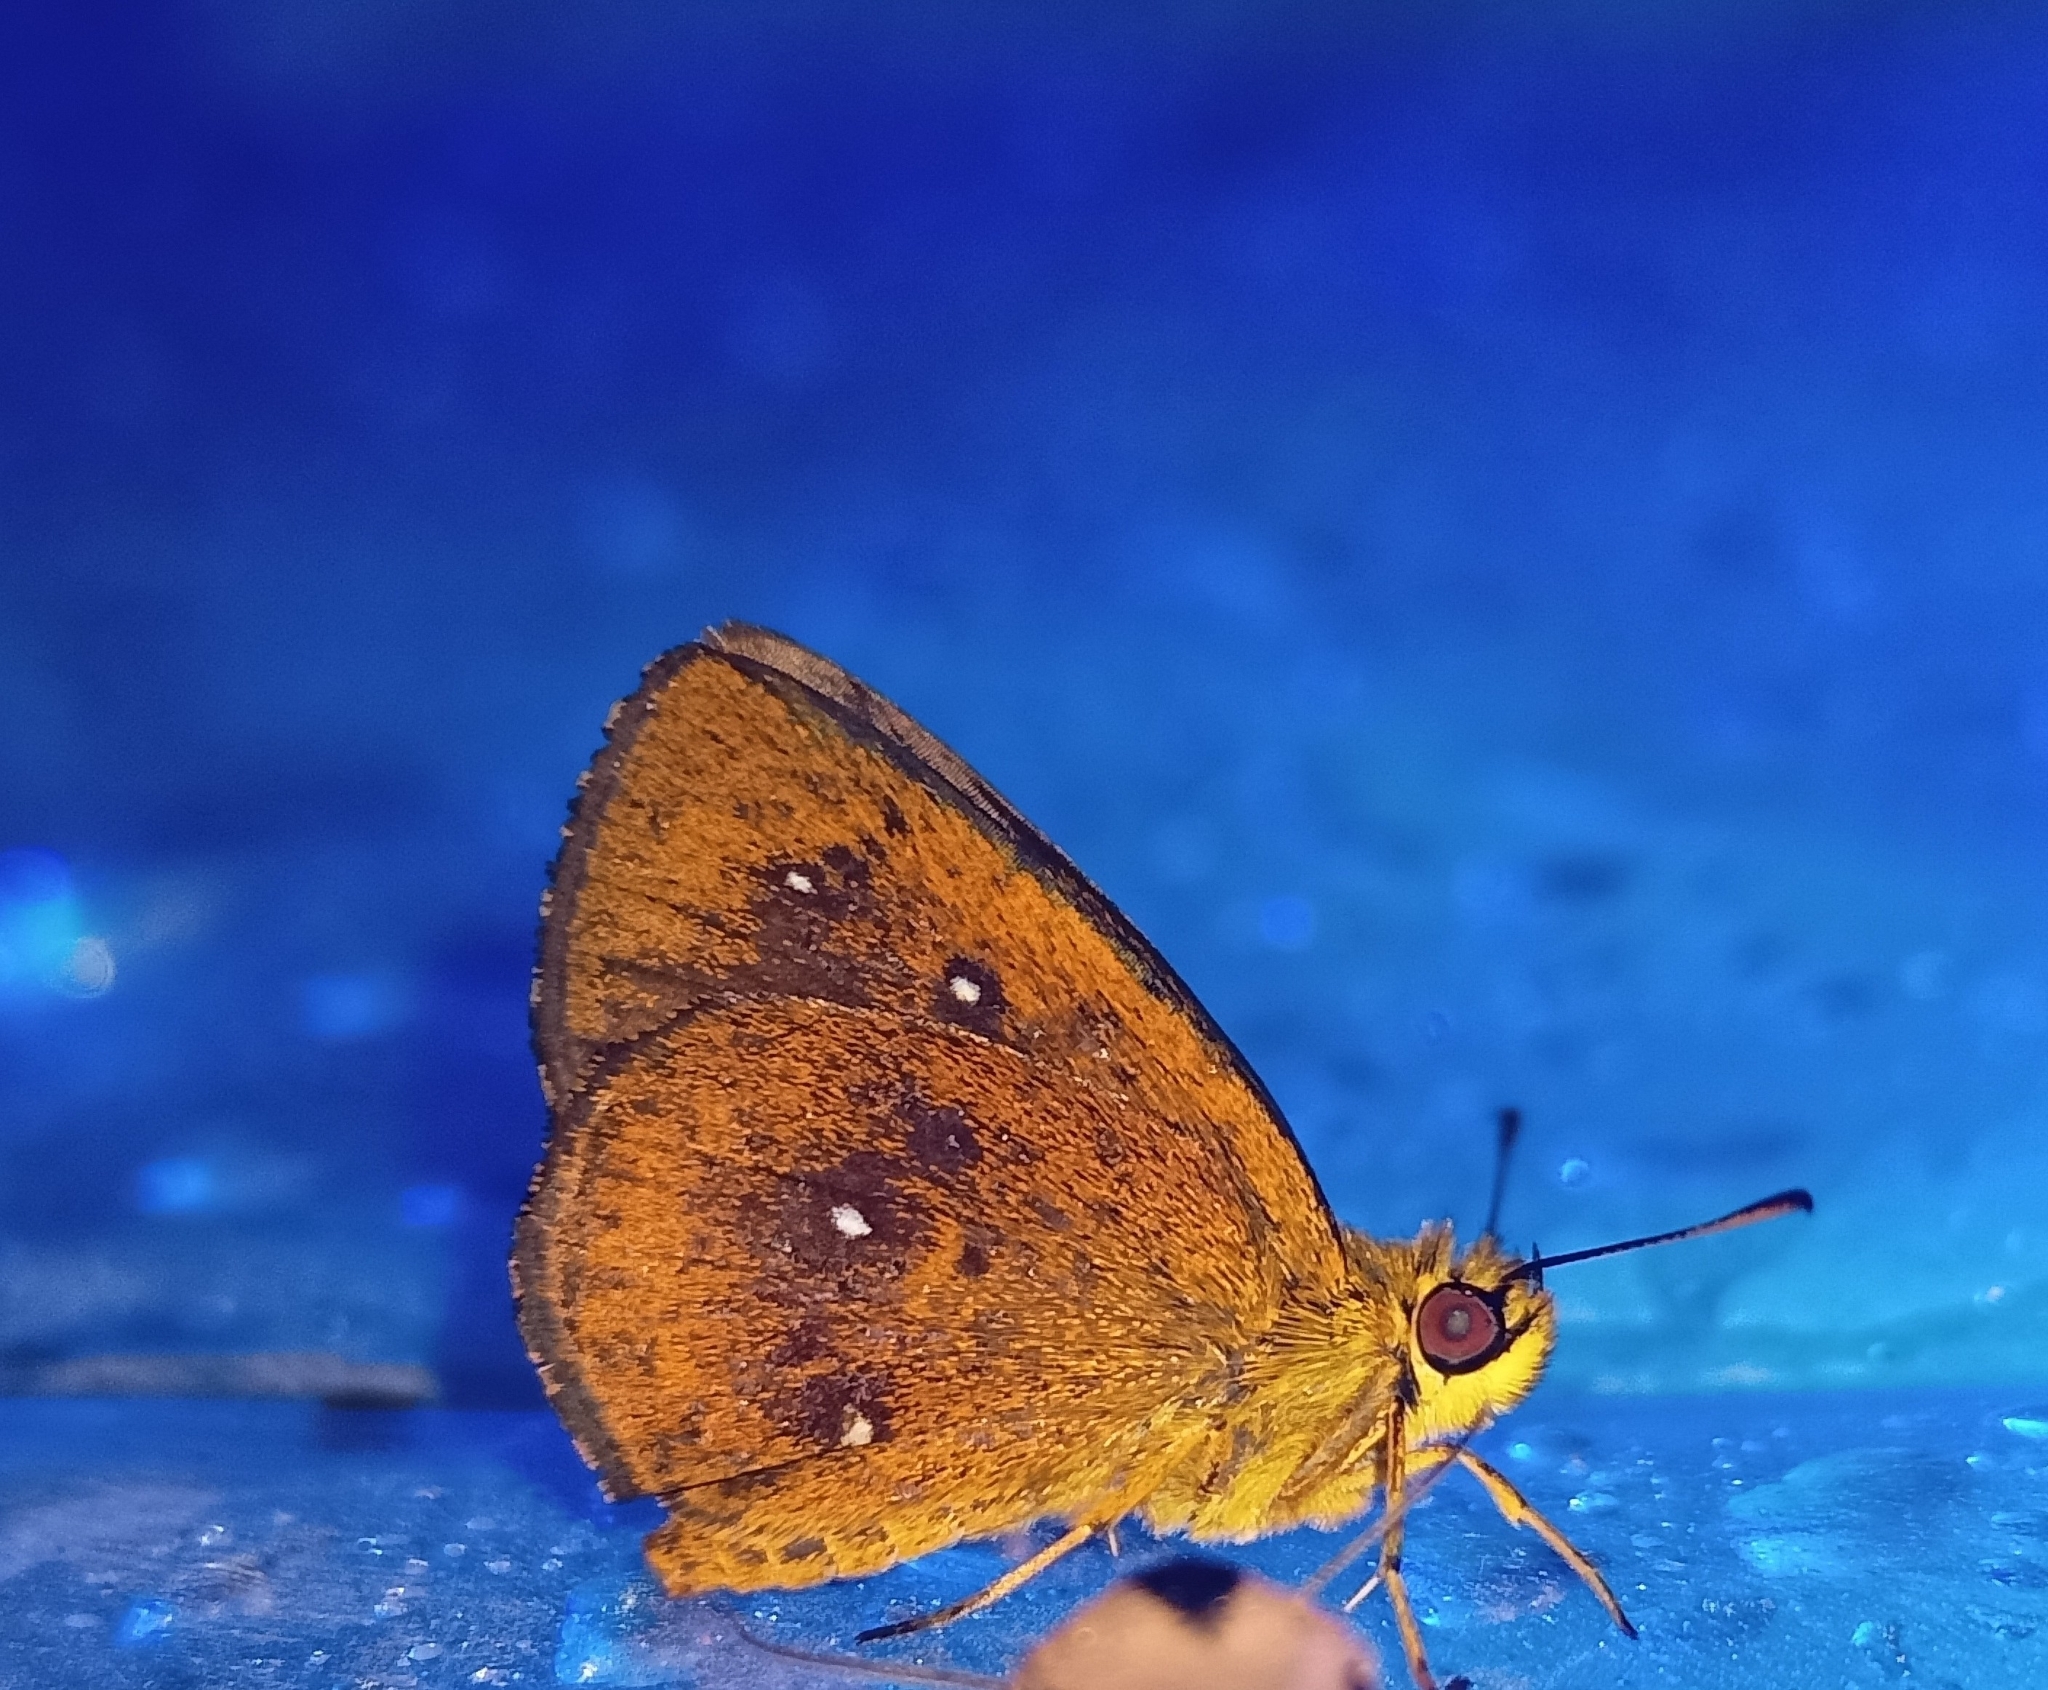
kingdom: Animalia
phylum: Arthropoda
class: Insecta
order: Lepidoptera
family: Hesperiidae
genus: Iambrix
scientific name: Iambrix salsala
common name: Chestnut bob
